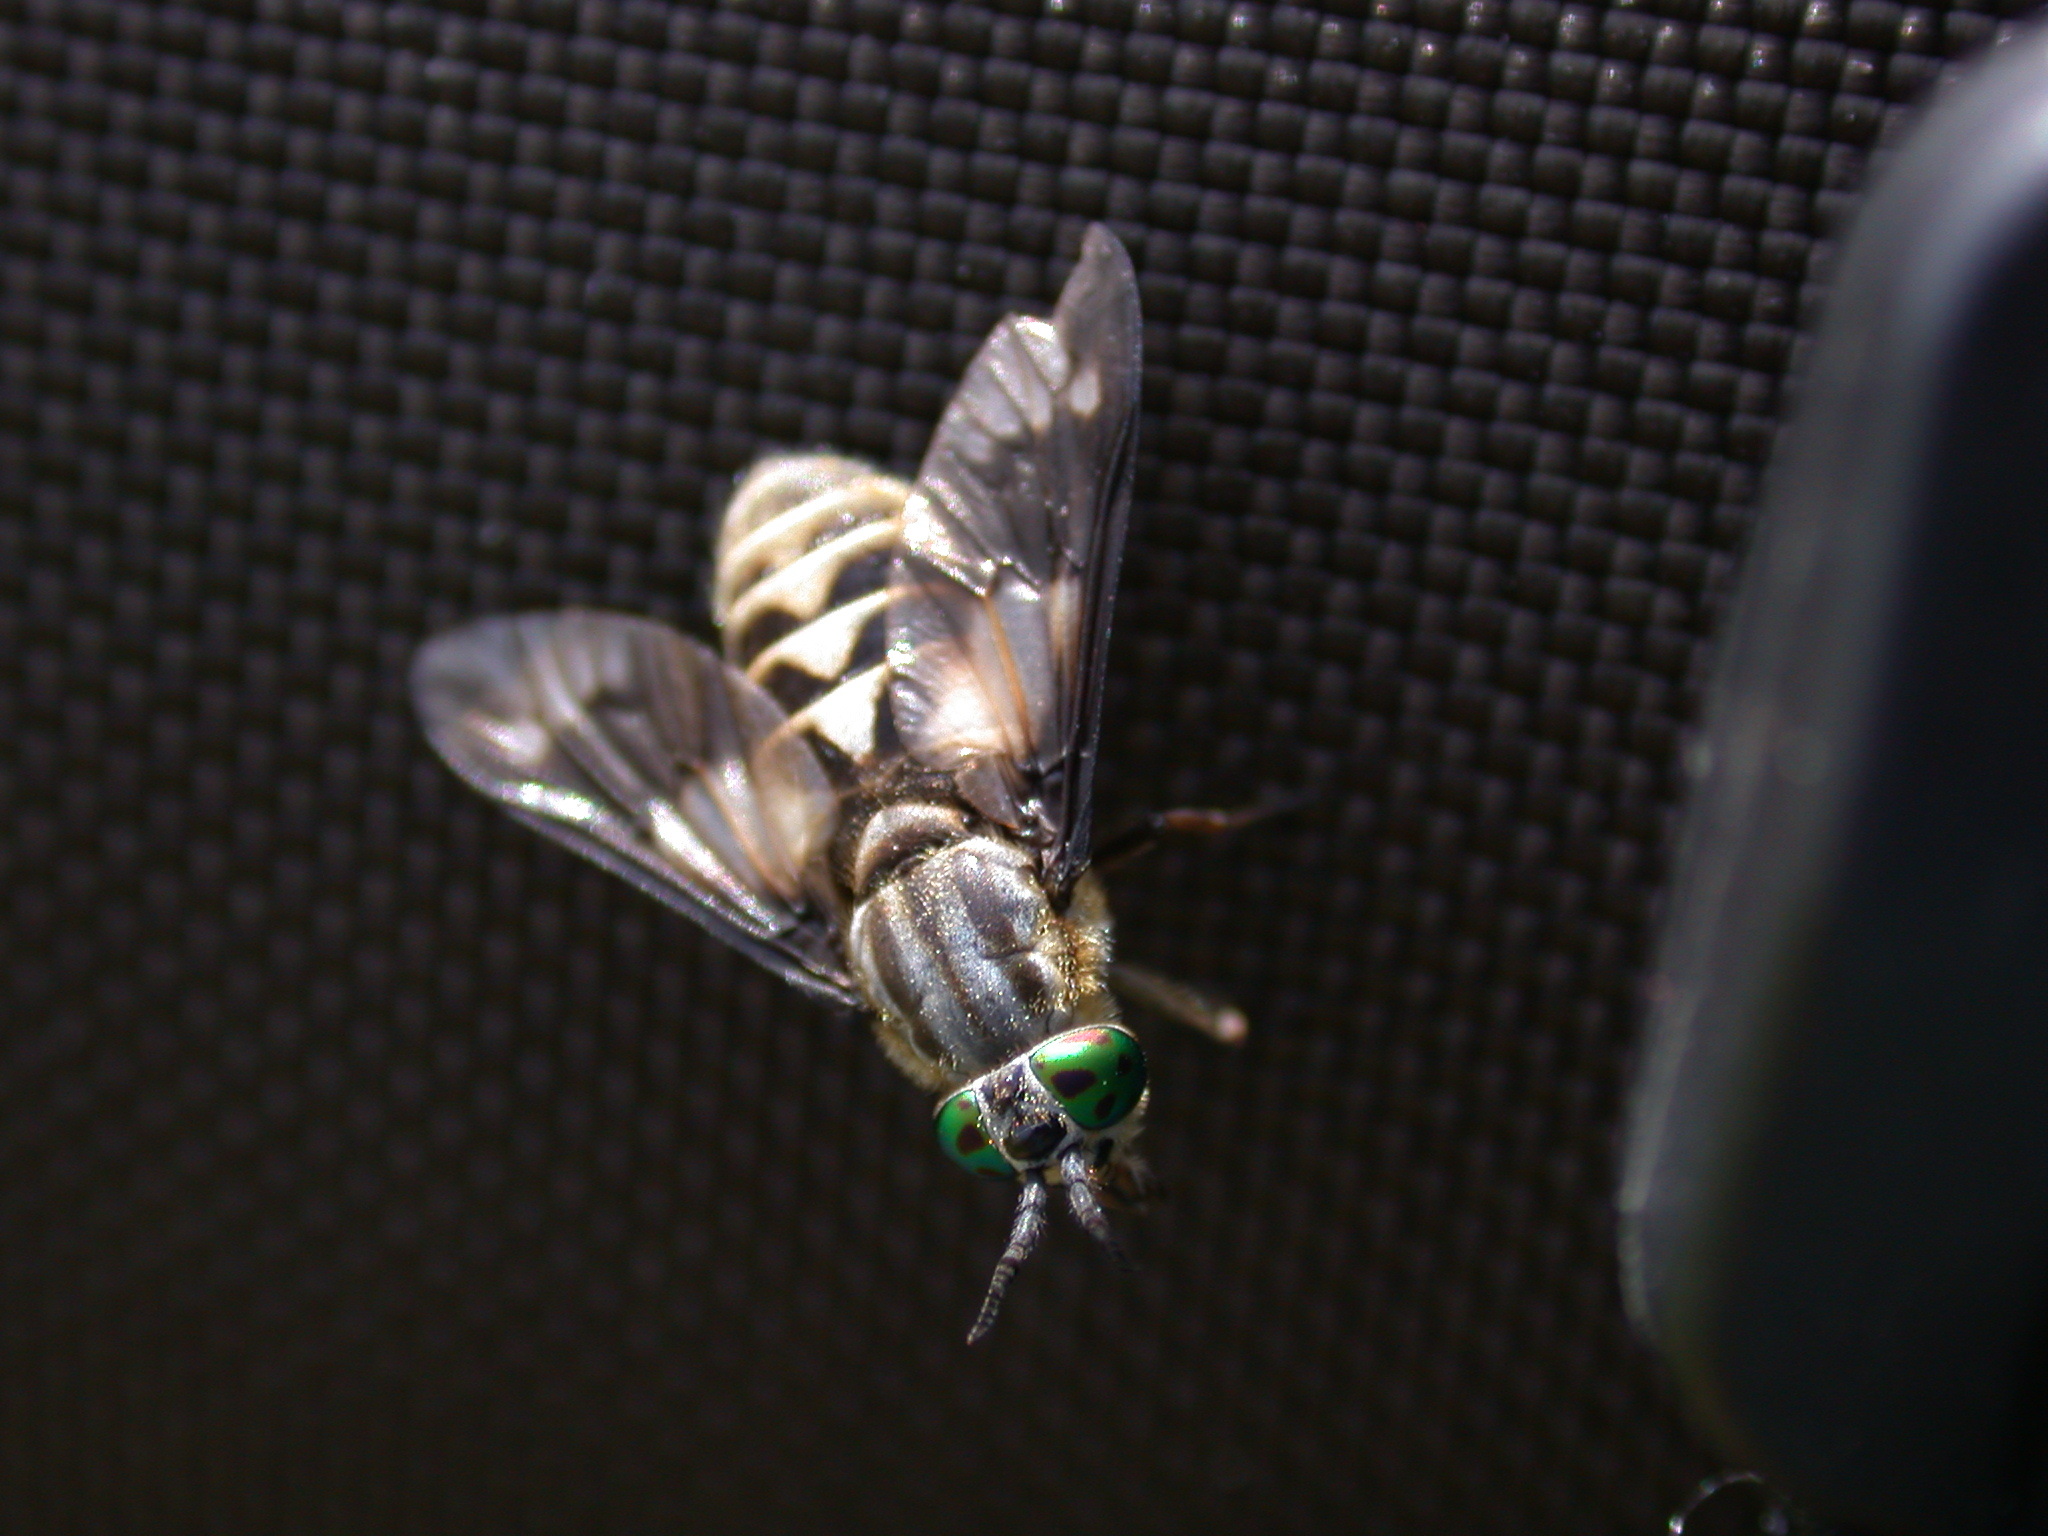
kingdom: Animalia
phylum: Arthropoda
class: Insecta
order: Diptera
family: Tabanidae
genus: Chrysops
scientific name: Chrysops relictus
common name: Twin-lobed deerfly
